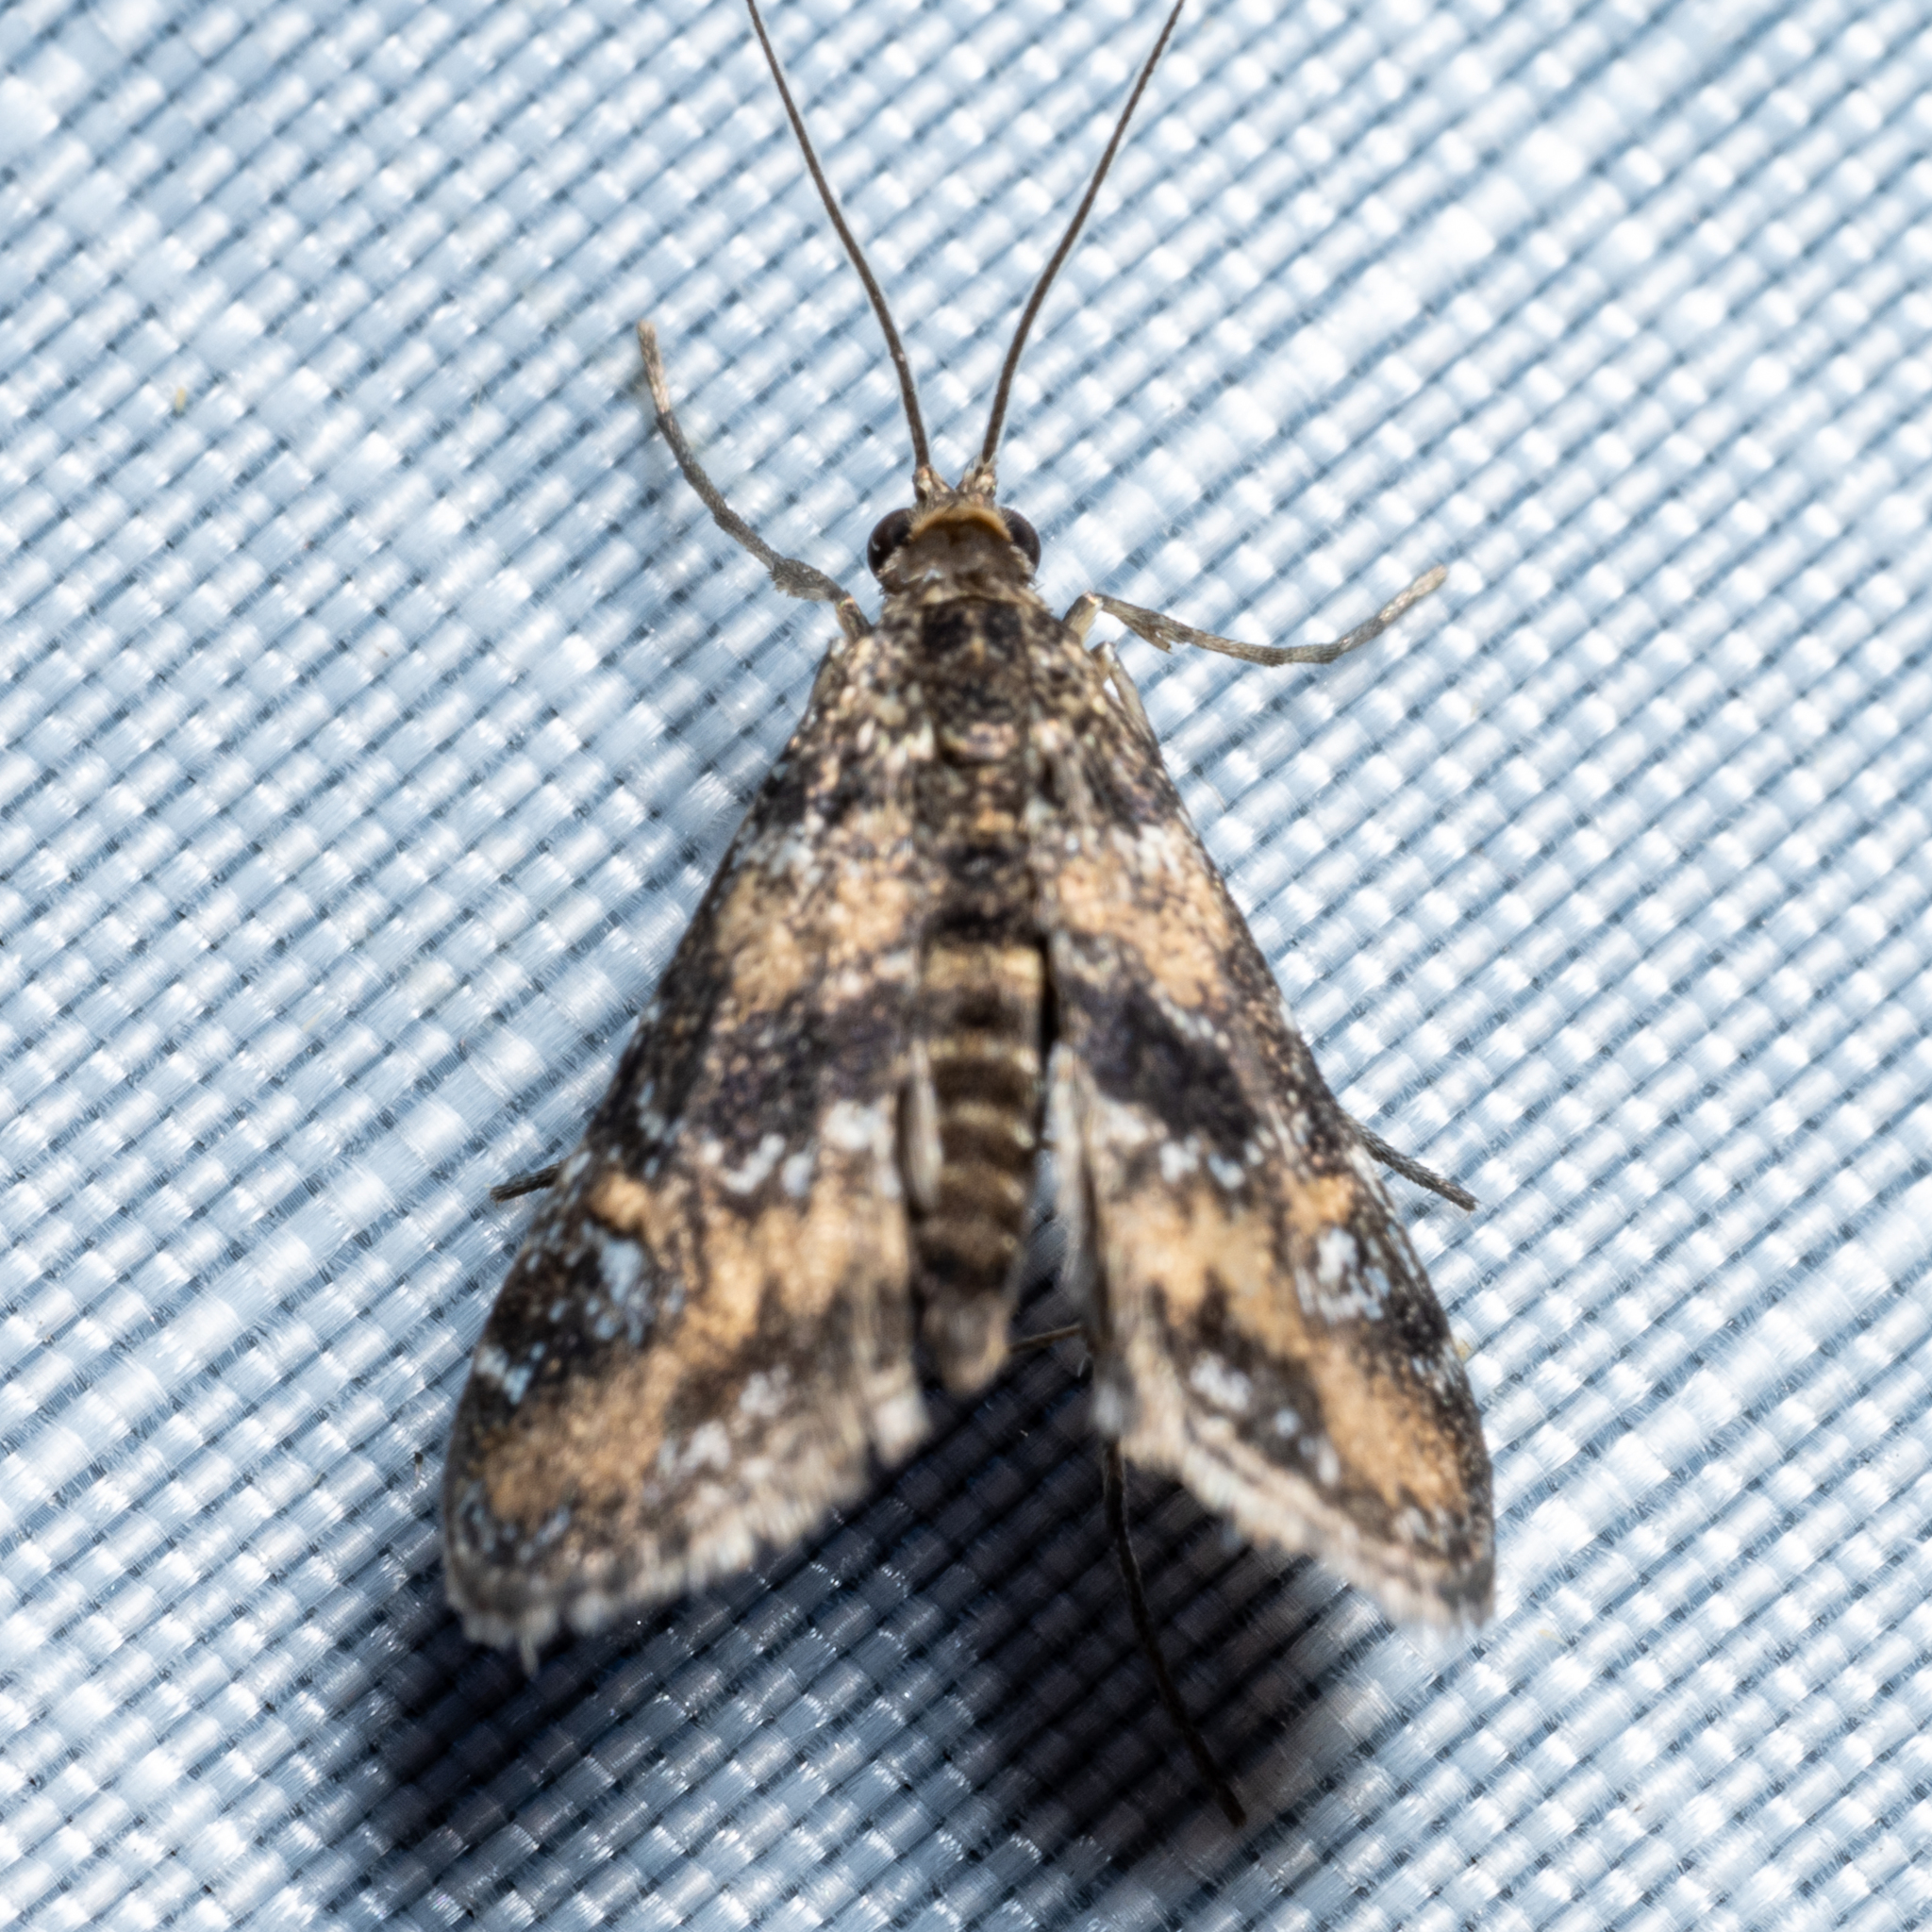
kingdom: Animalia
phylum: Arthropoda
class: Insecta
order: Lepidoptera
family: Crambidae
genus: Elophila
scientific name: Elophila obliteralis
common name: Waterlily leafcutter moth
